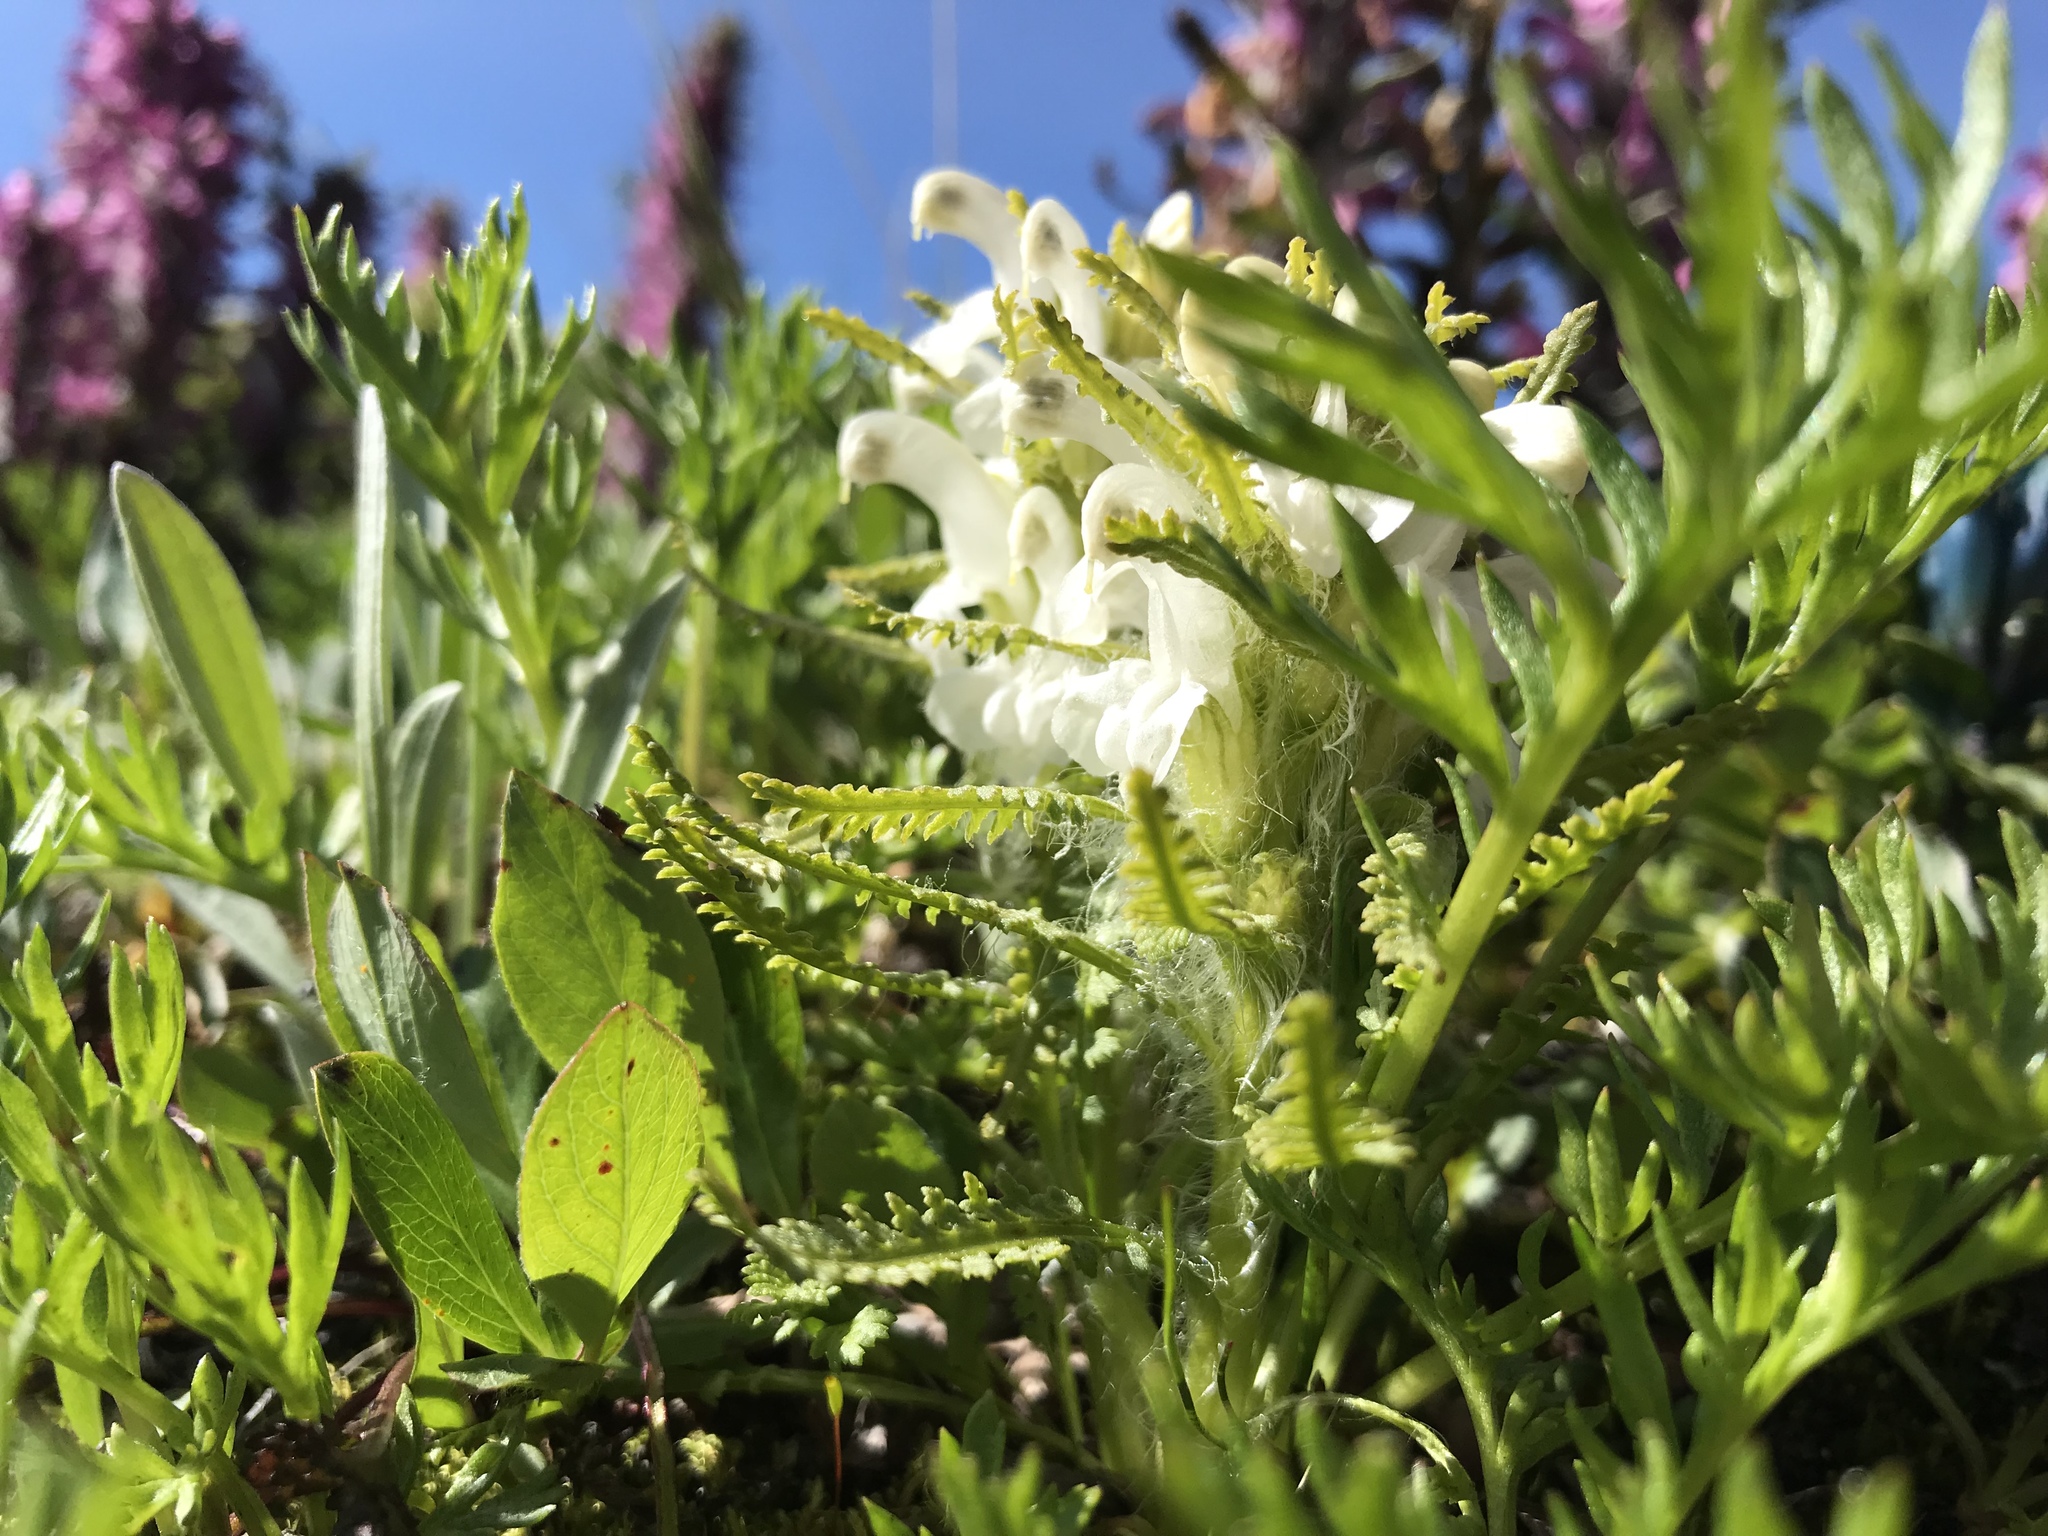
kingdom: Plantae
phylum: Tracheophyta
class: Magnoliopsida
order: Lamiales
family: Orobanchaceae
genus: Pedicularis
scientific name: Pedicularis langsdorffii
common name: Langsdorff's lousewort
